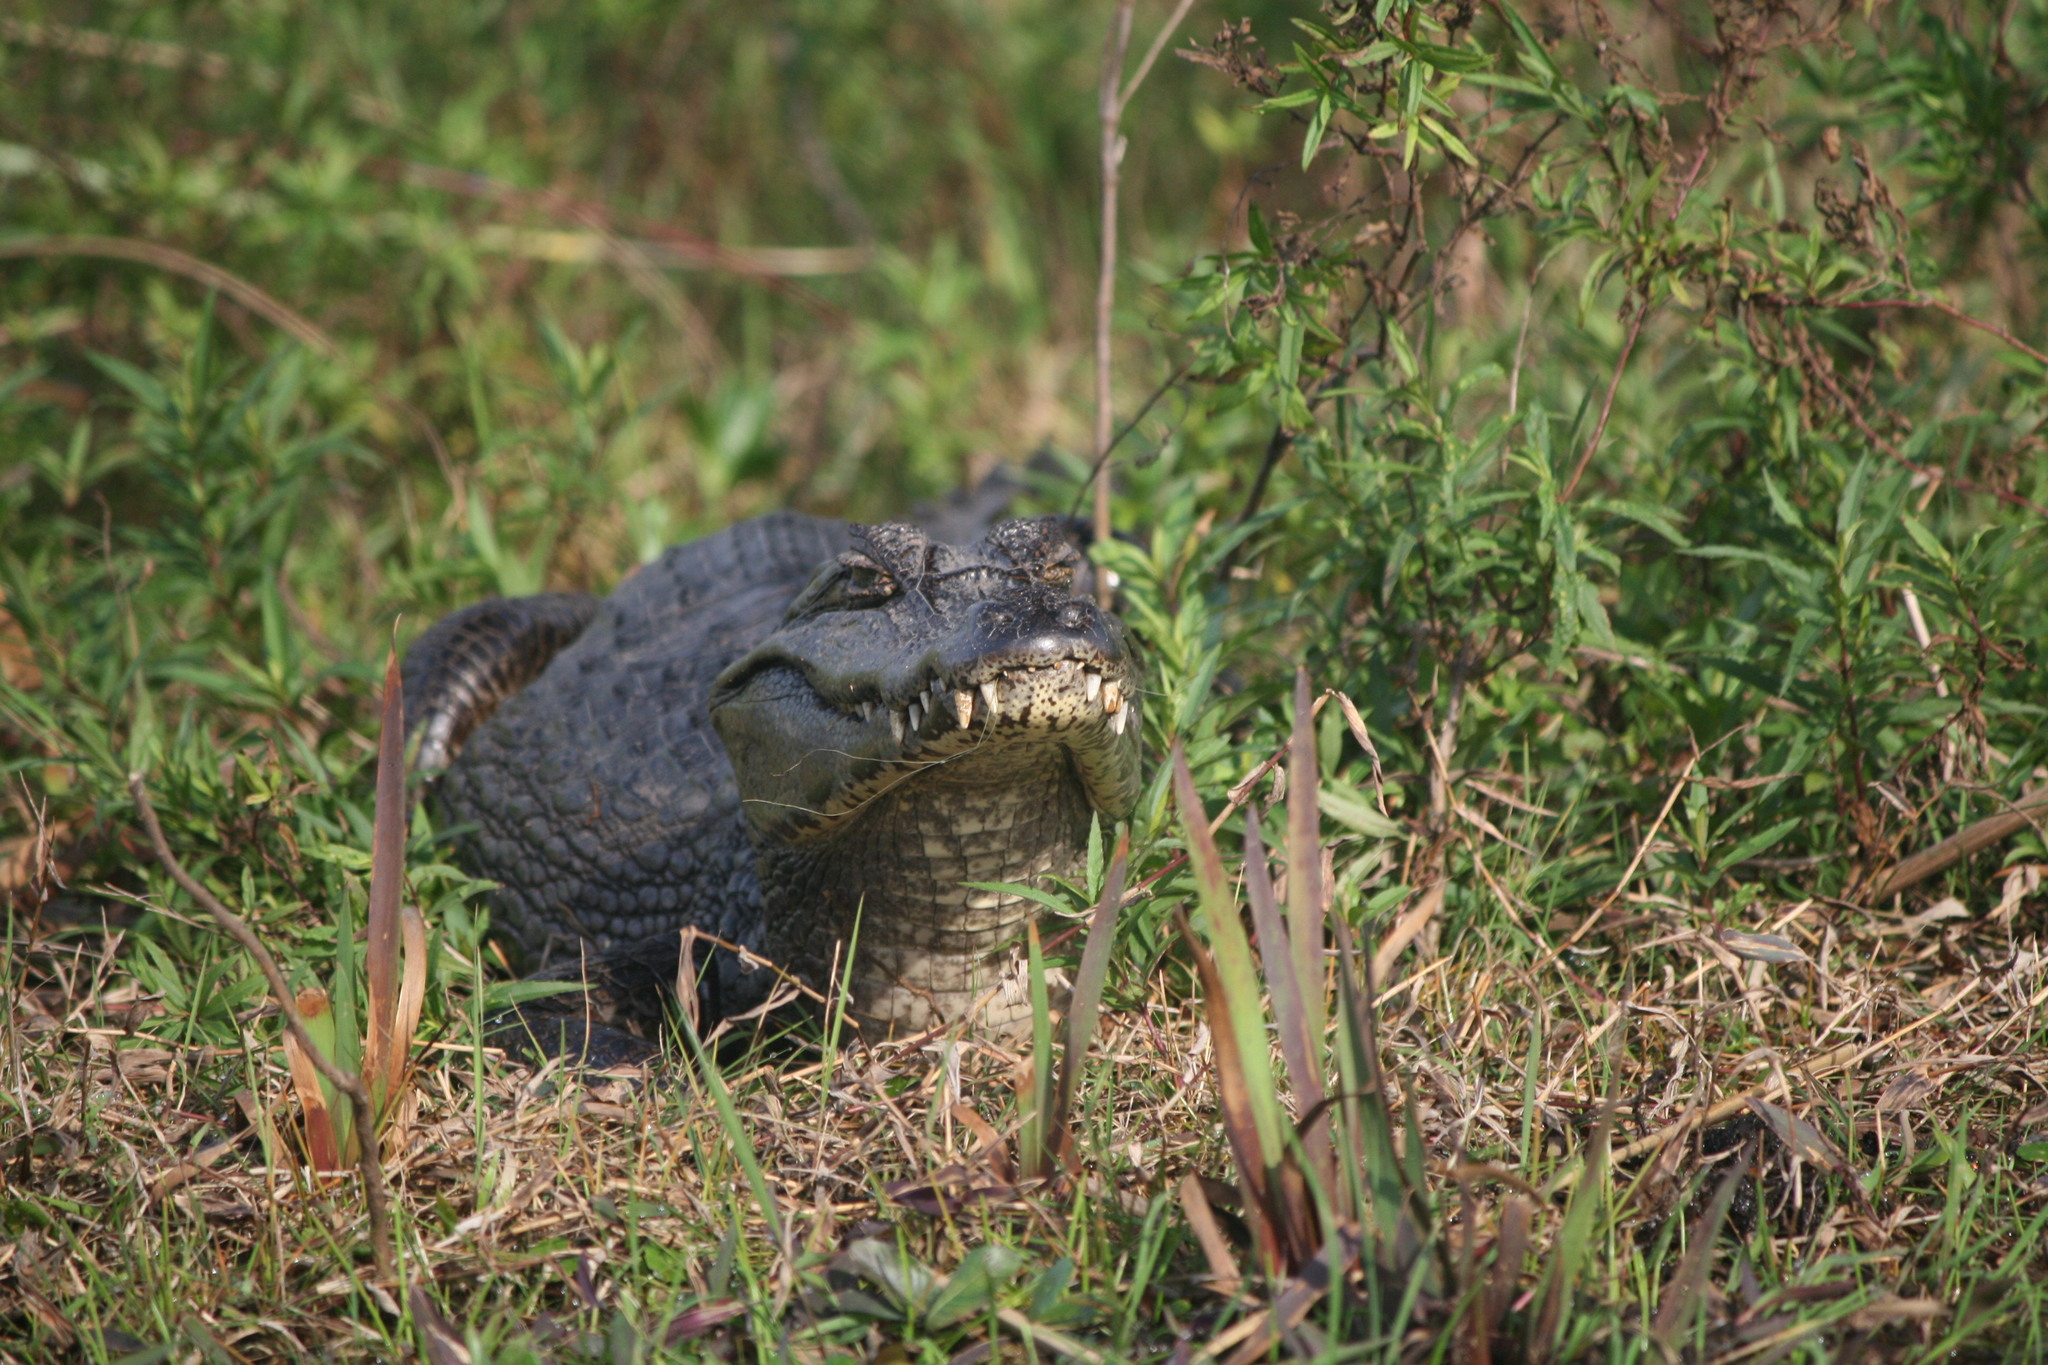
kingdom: Animalia
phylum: Chordata
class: Crocodylia
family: Alligatoridae
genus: Caiman
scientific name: Caiman yacare
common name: Yacare caiman
